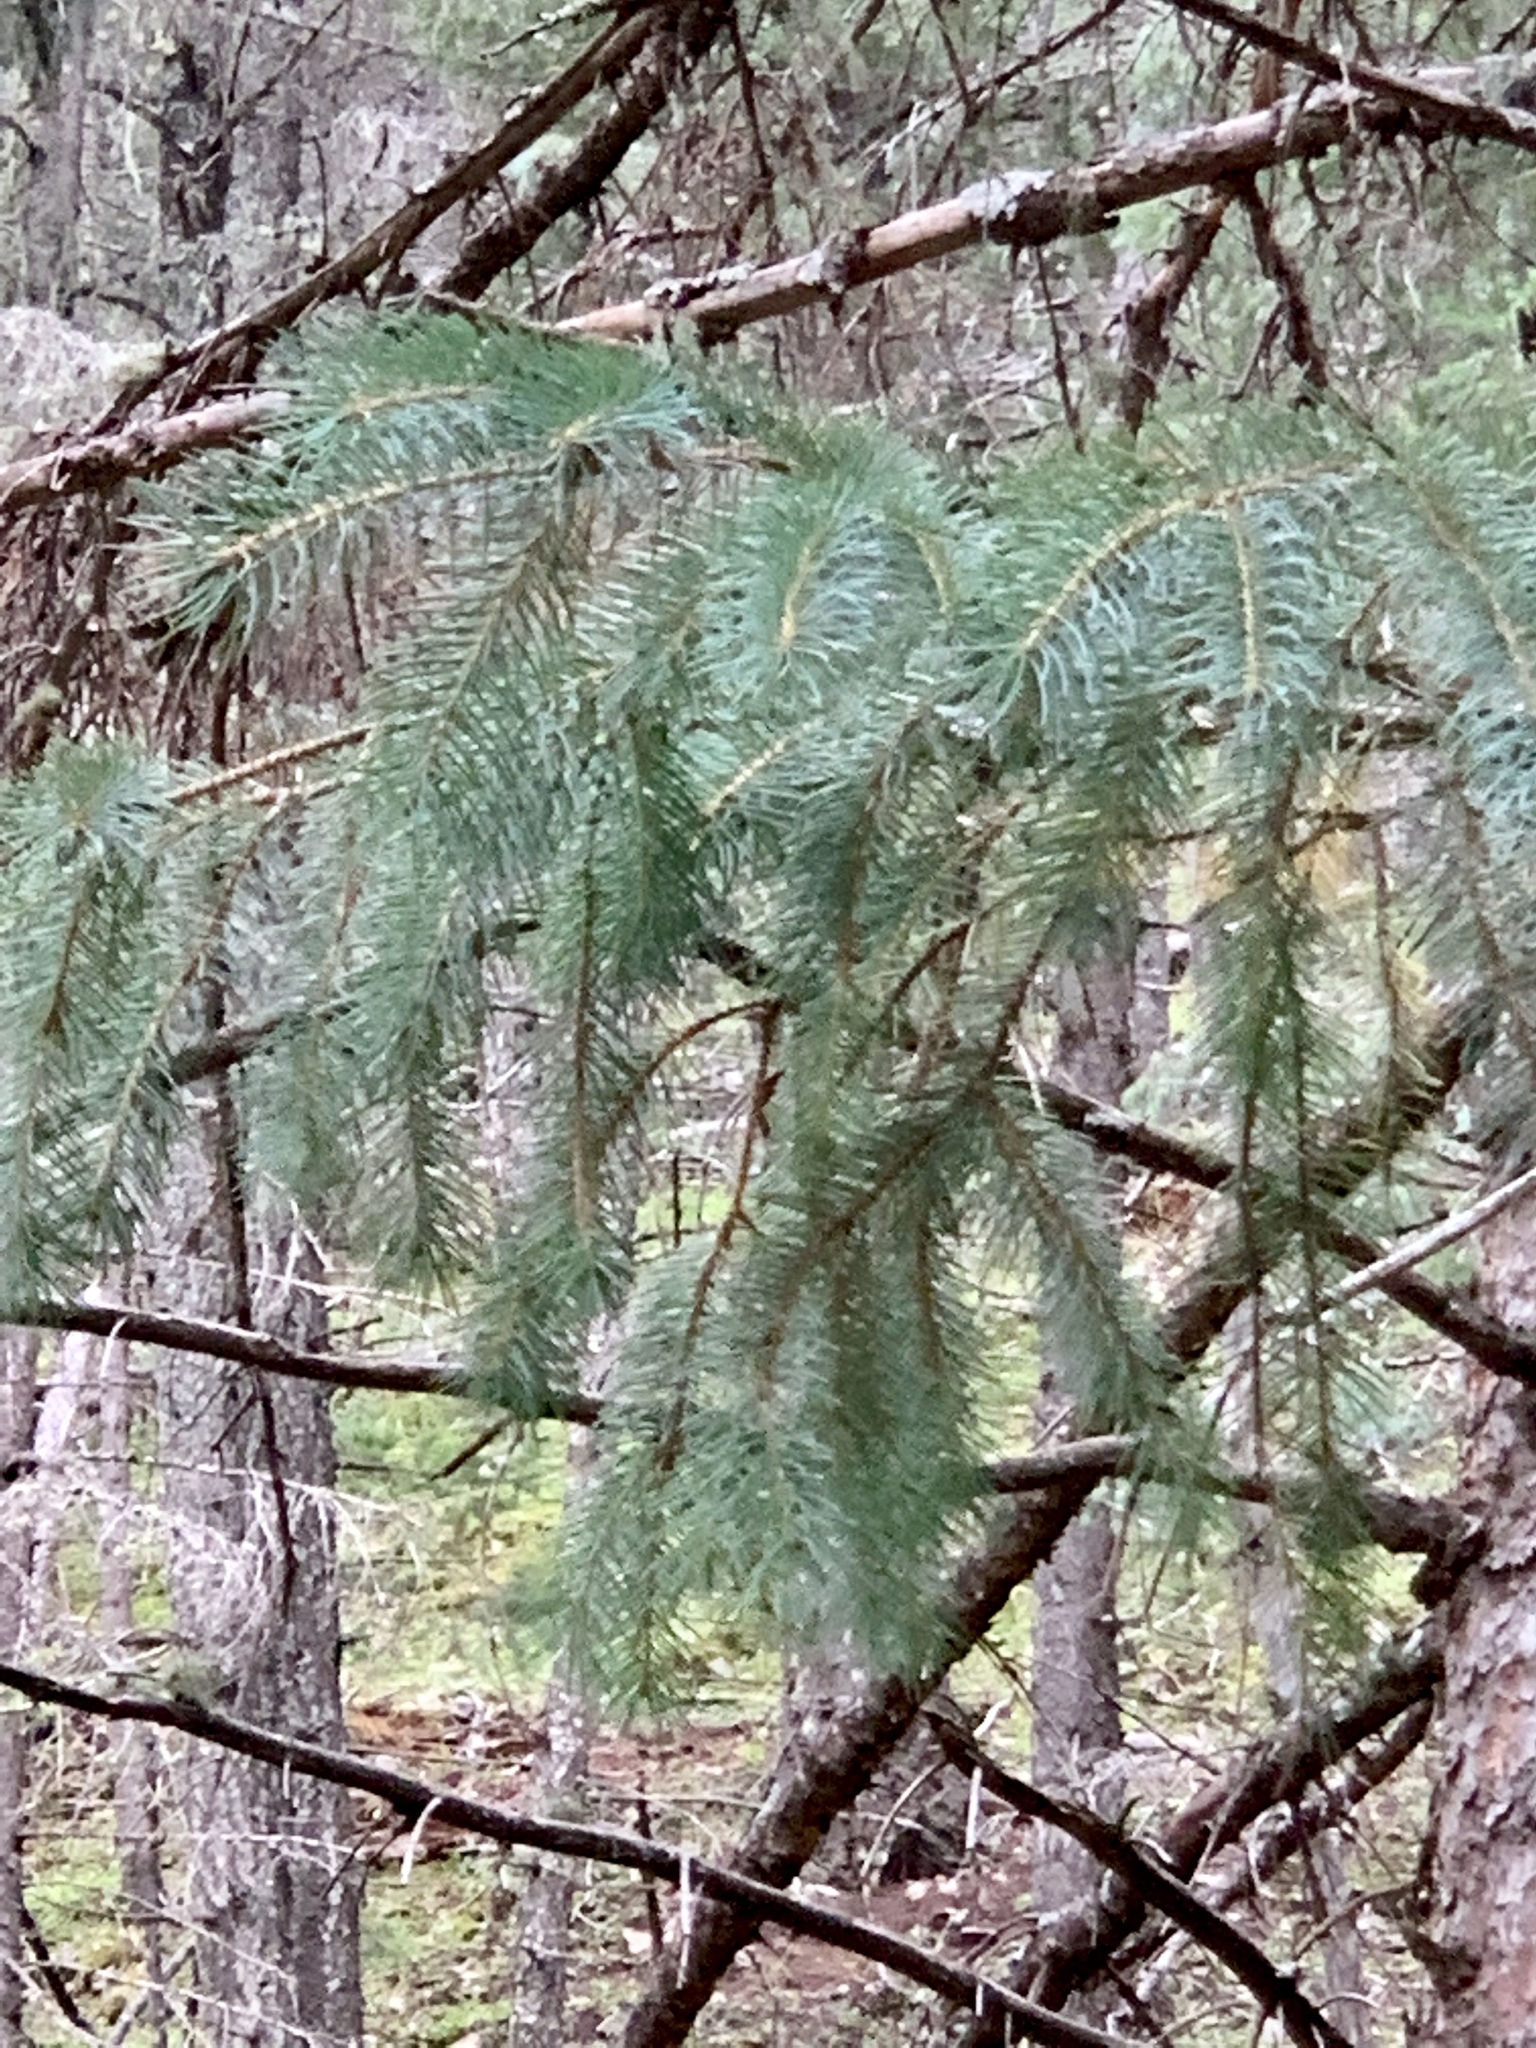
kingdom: Plantae
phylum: Tracheophyta
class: Pinopsida
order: Pinales
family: Pinaceae
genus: Picea
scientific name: Picea engelmannii
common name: Engelmann spruce
